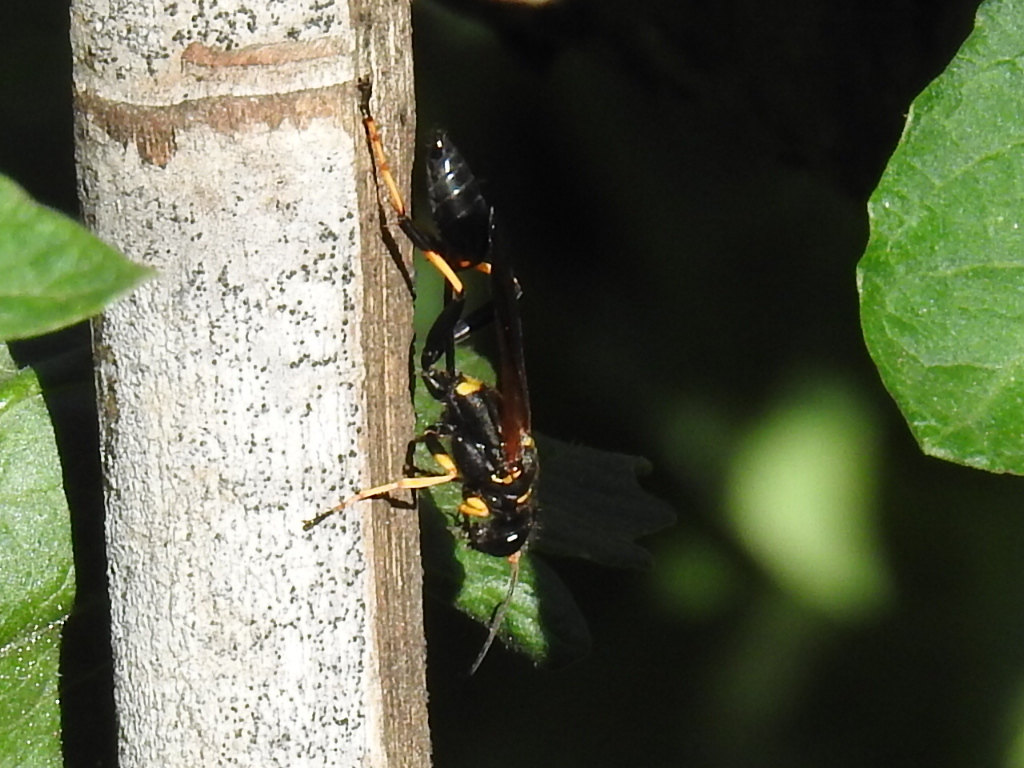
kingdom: Animalia
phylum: Arthropoda
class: Insecta
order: Hymenoptera
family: Sphecidae
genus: Sceliphron
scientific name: Sceliphron caementarium
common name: Mud dauber
